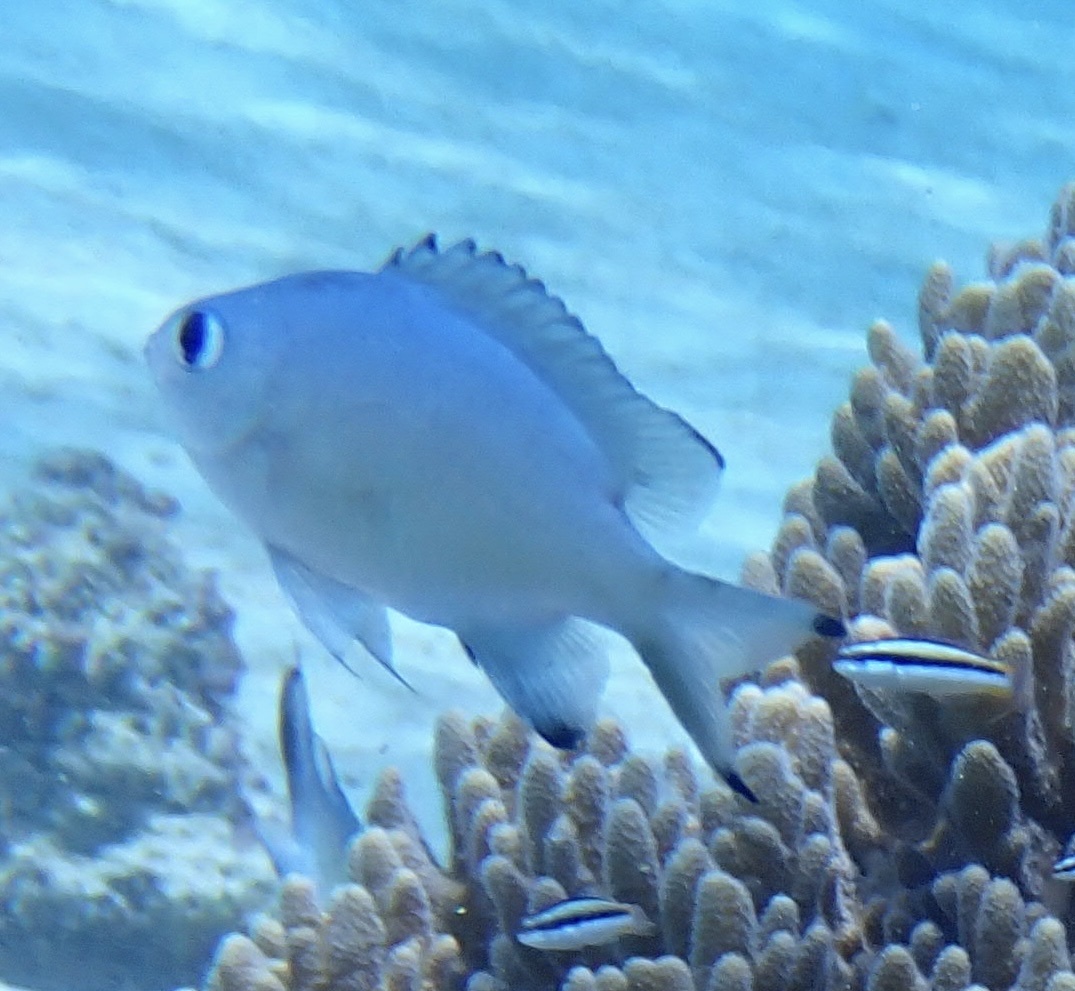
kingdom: Animalia
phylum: Chordata
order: Perciformes
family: Pomacentridae
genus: Chromis
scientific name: Chromis lepidolepis
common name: Scaly chromis
